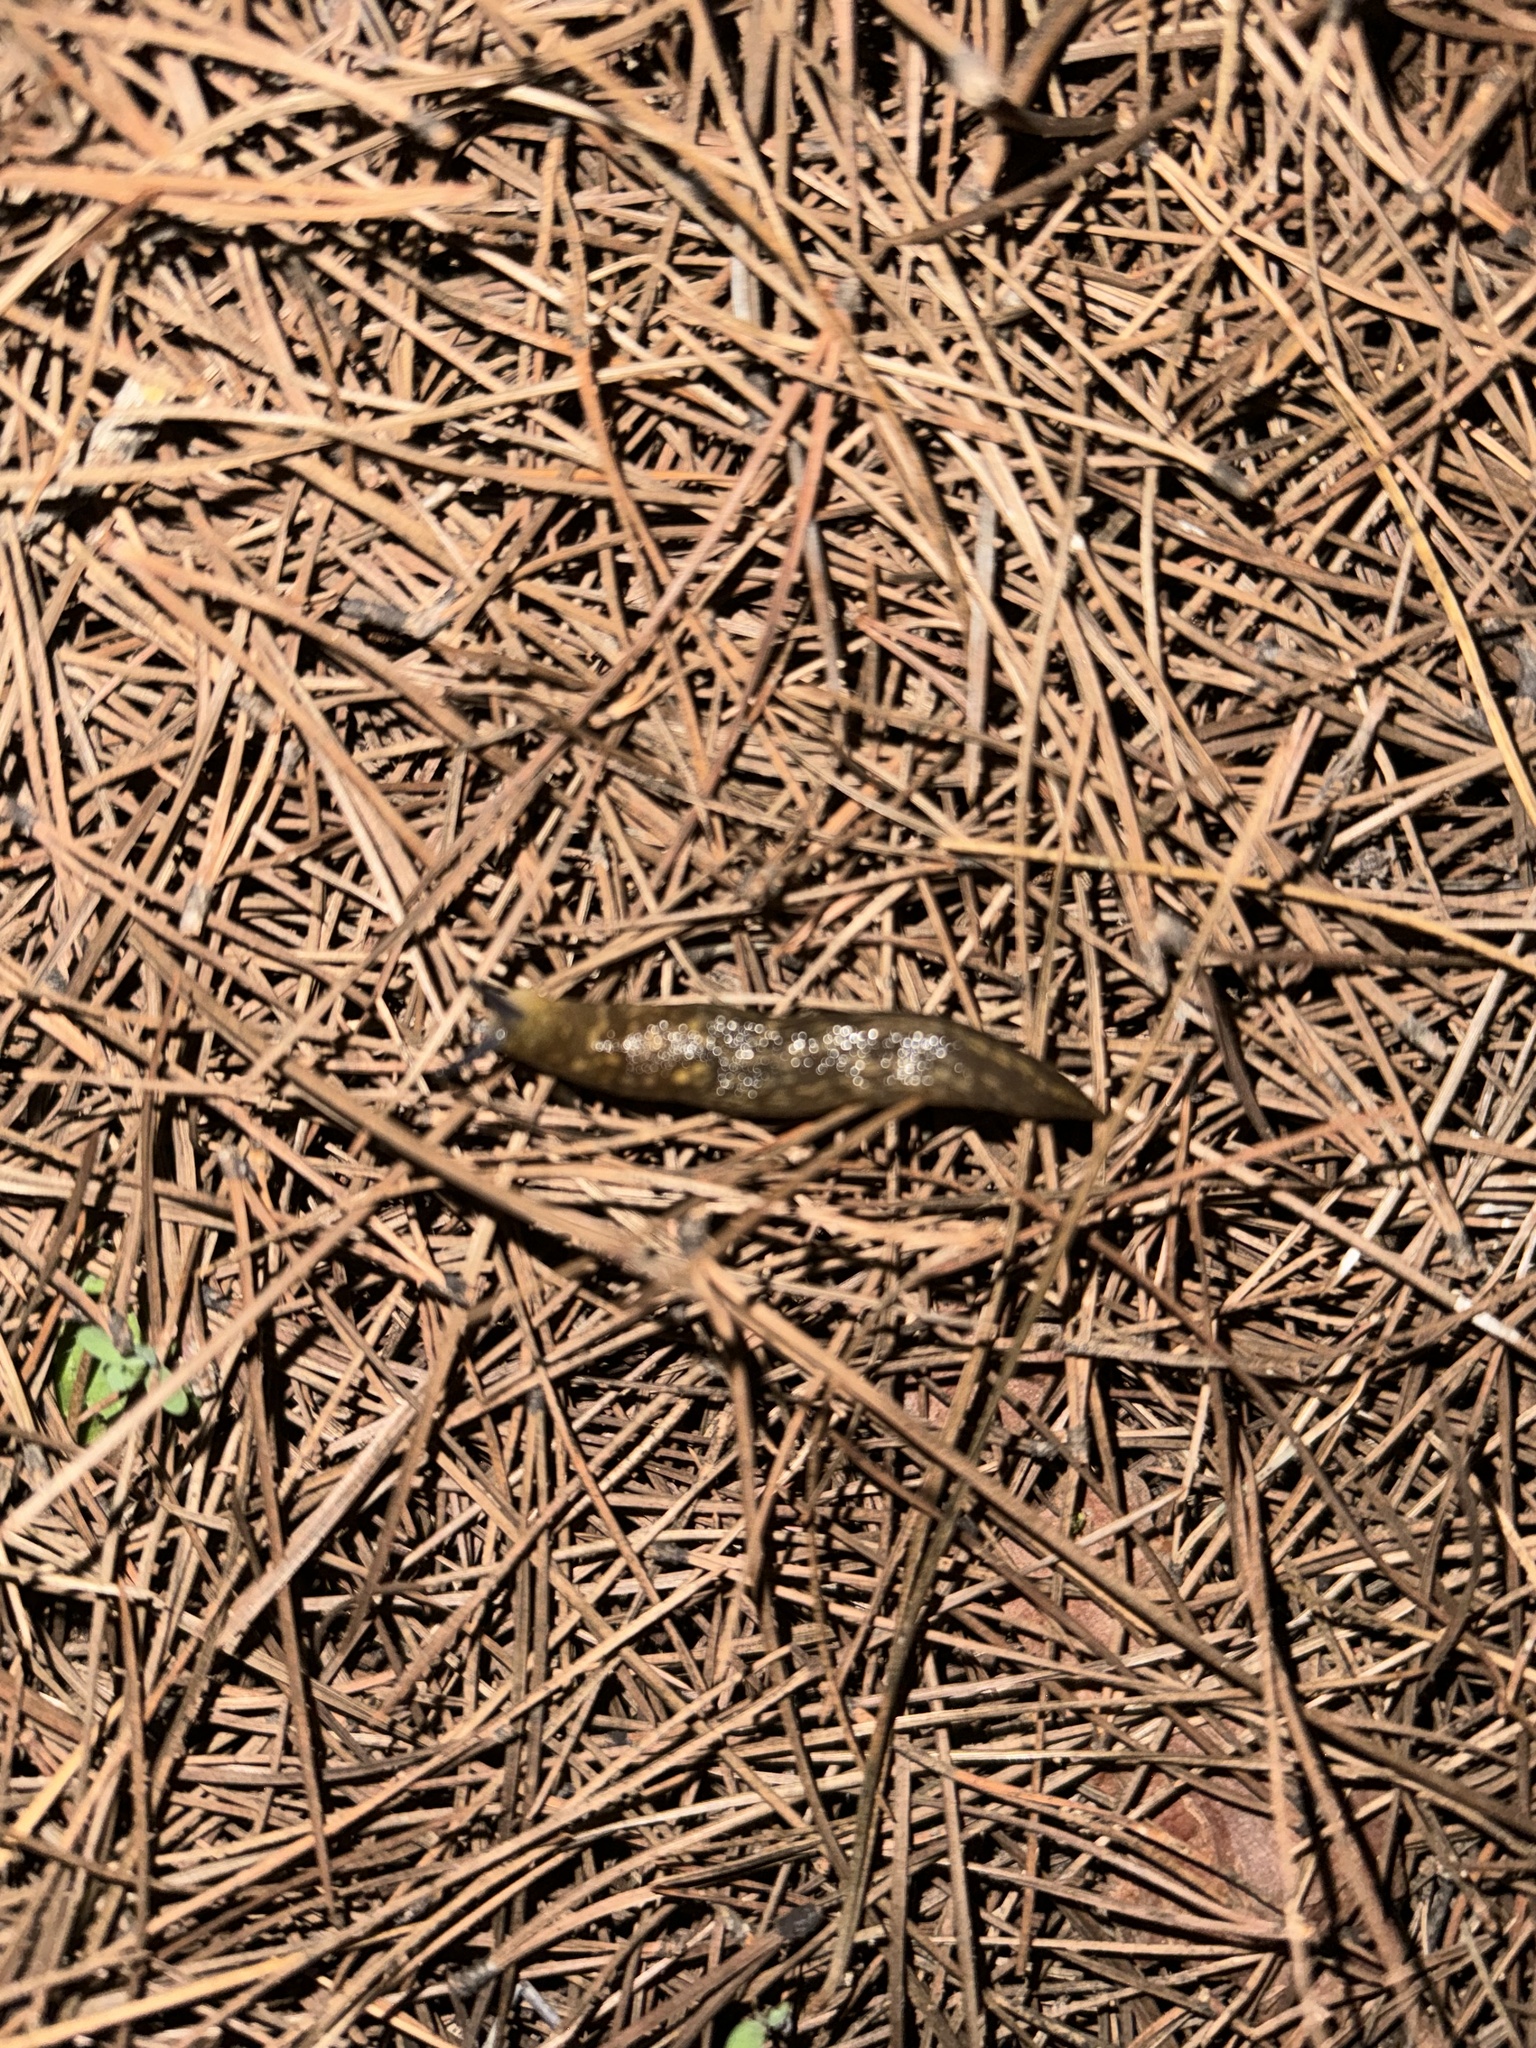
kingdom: Animalia
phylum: Mollusca
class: Gastropoda
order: Stylommatophora
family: Limacidae
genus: Limacus
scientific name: Limacus flavus
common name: Yellow gardenslug
